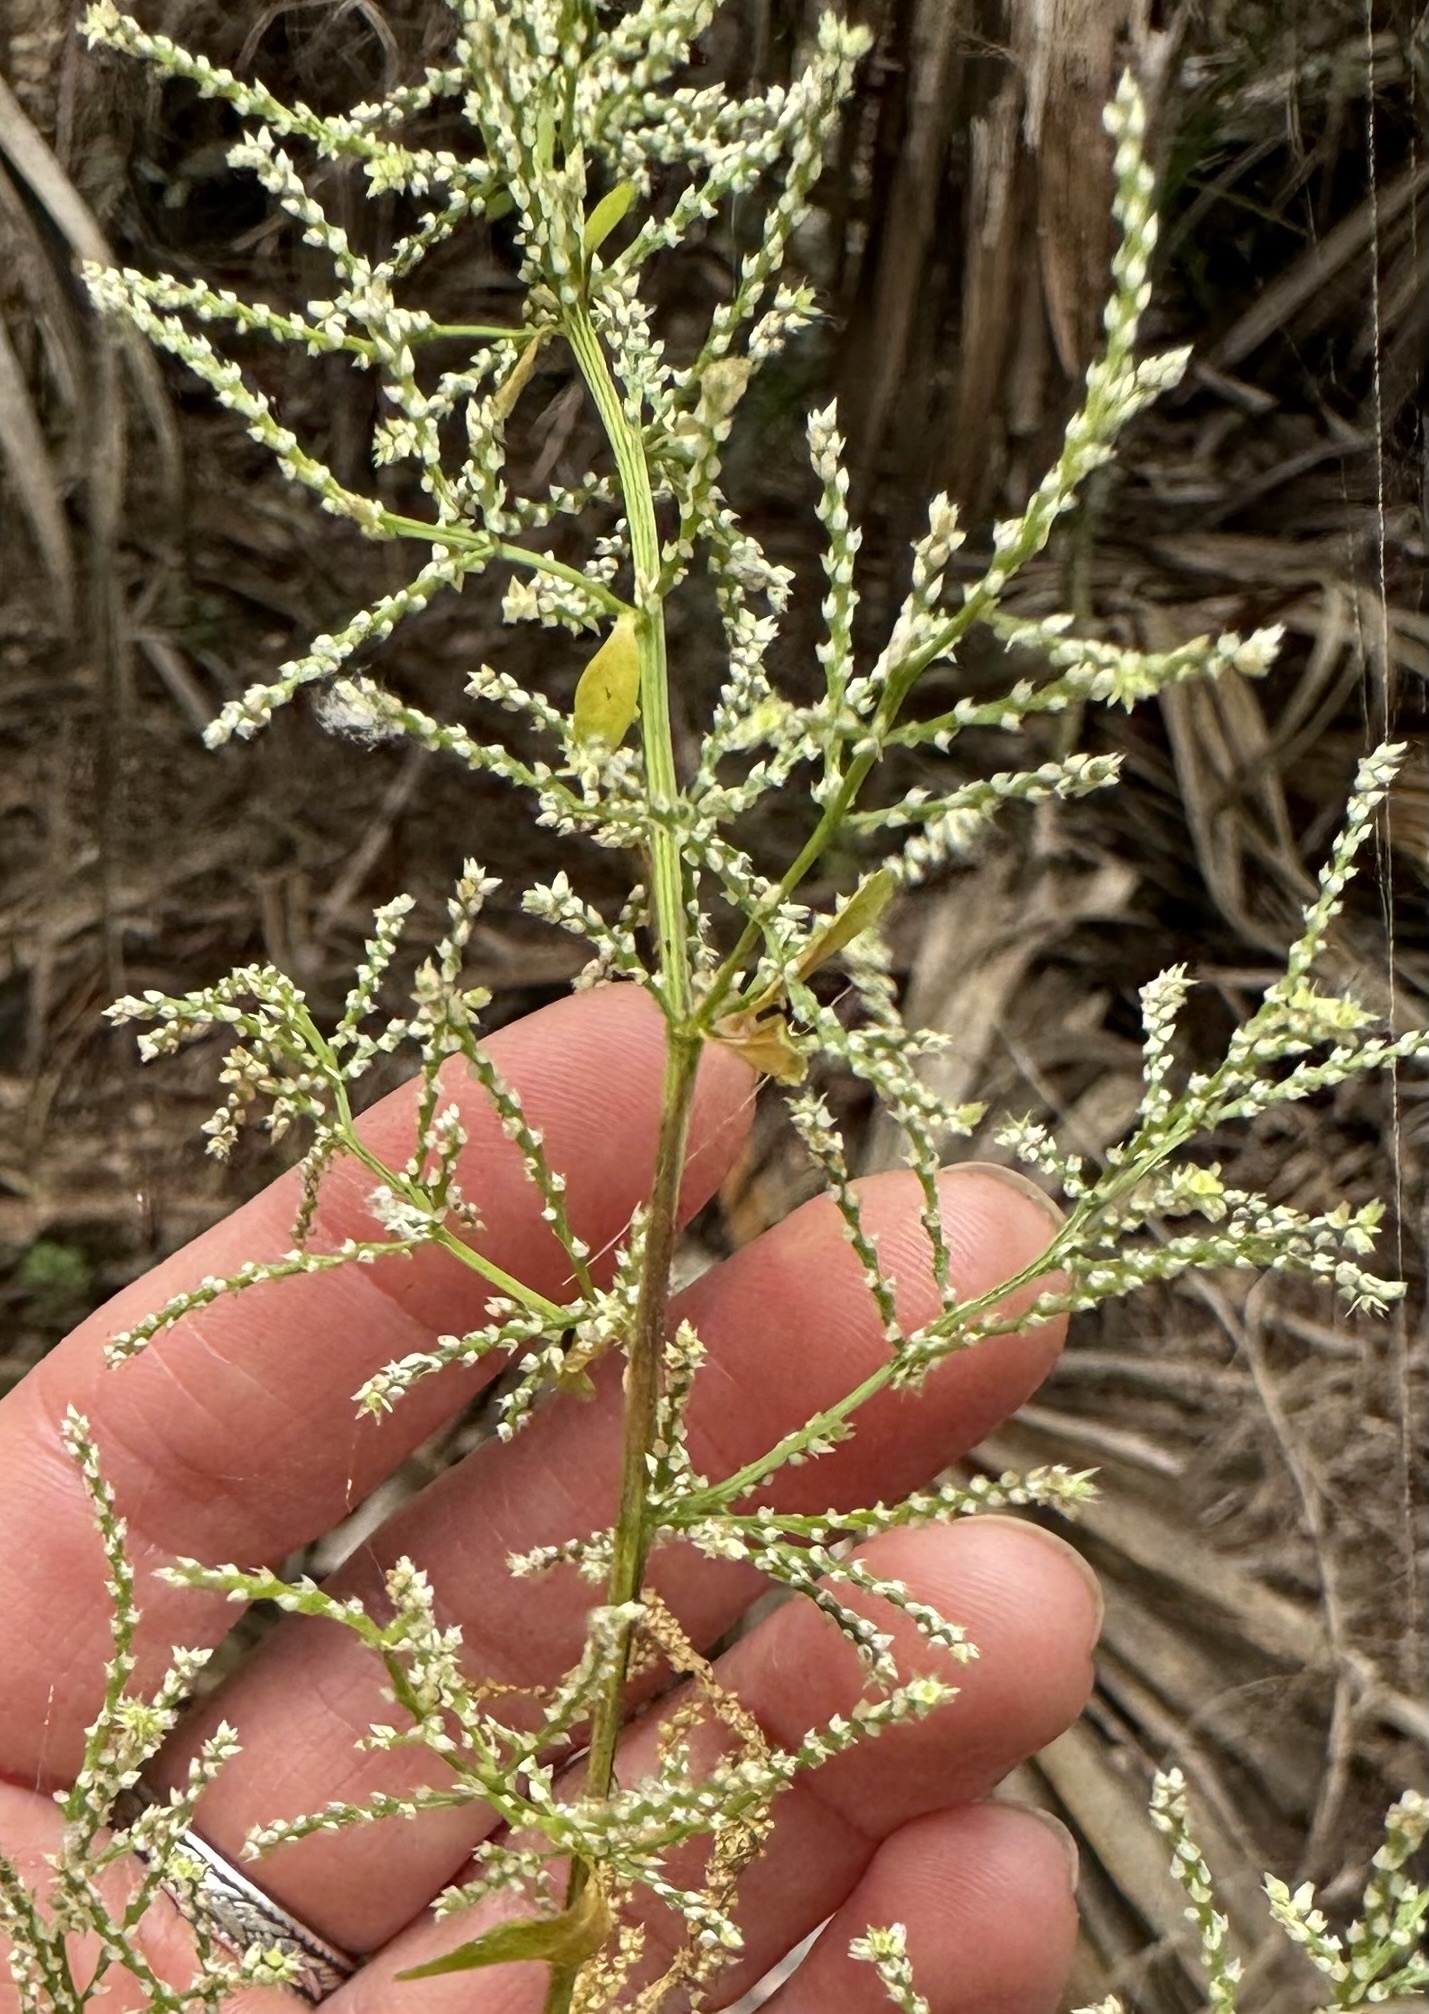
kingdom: Plantae
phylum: Tracheophyta
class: Magnoliopsida
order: Caryophyllales
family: Amaranthaceae
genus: Iresine
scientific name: Iresine diffusa
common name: Juba's-bush
